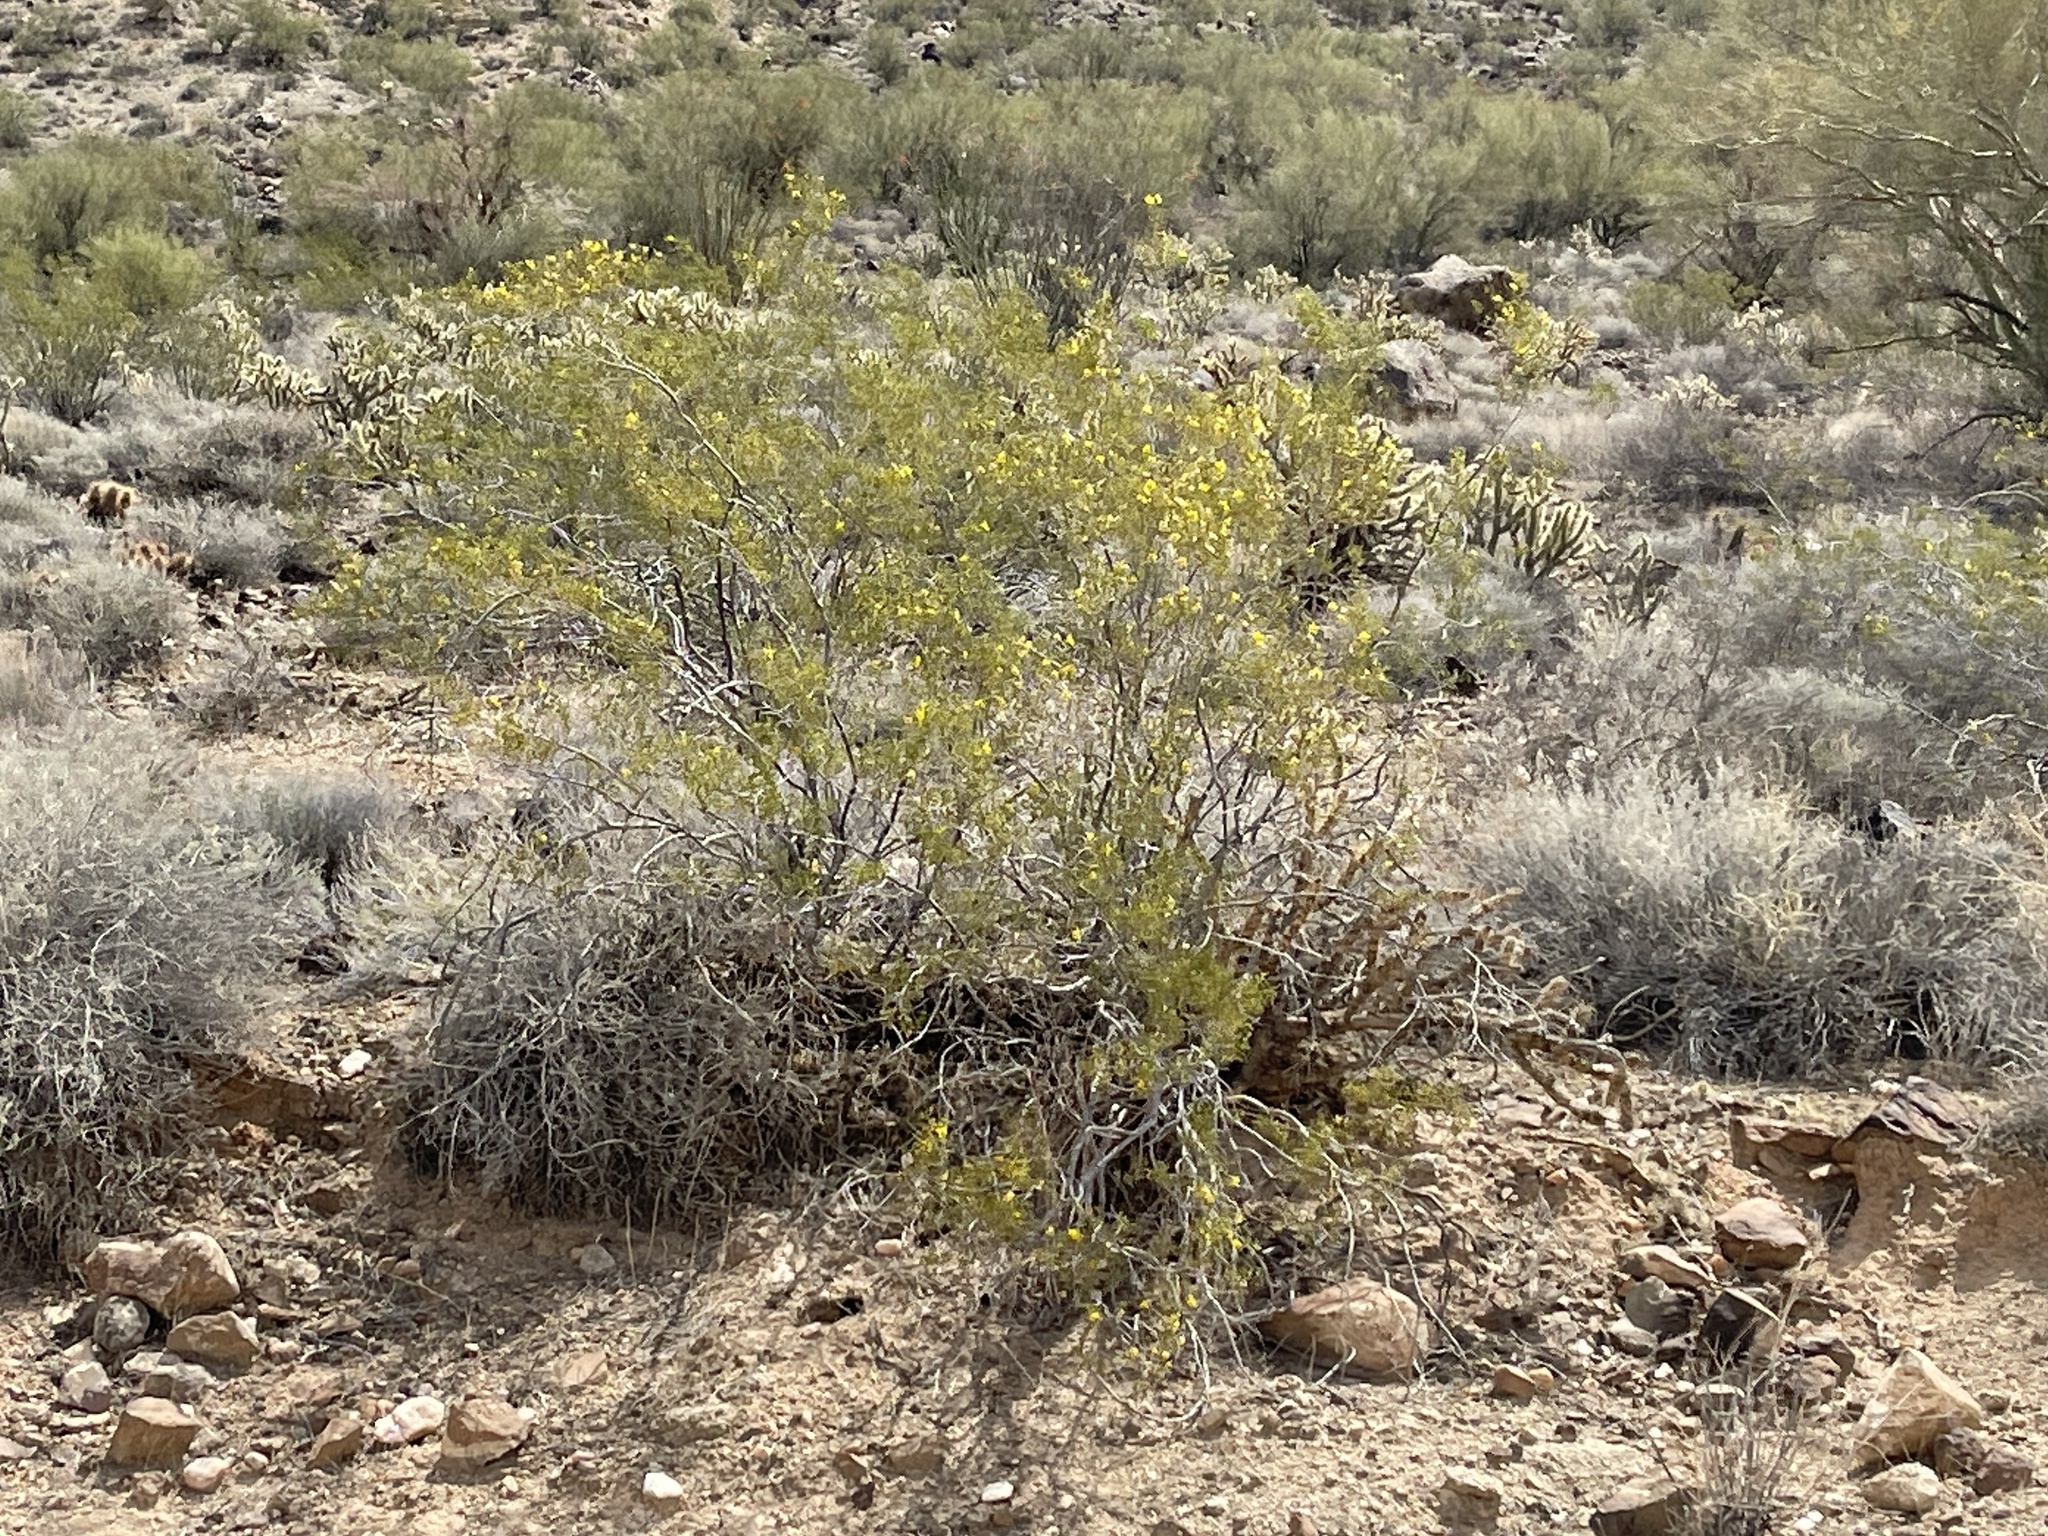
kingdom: Plantae
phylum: Tracheophyta
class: Magnoliopsida
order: Zygophyllales
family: Zygophyllaceae
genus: Larrea
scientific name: Larrea tridentata
